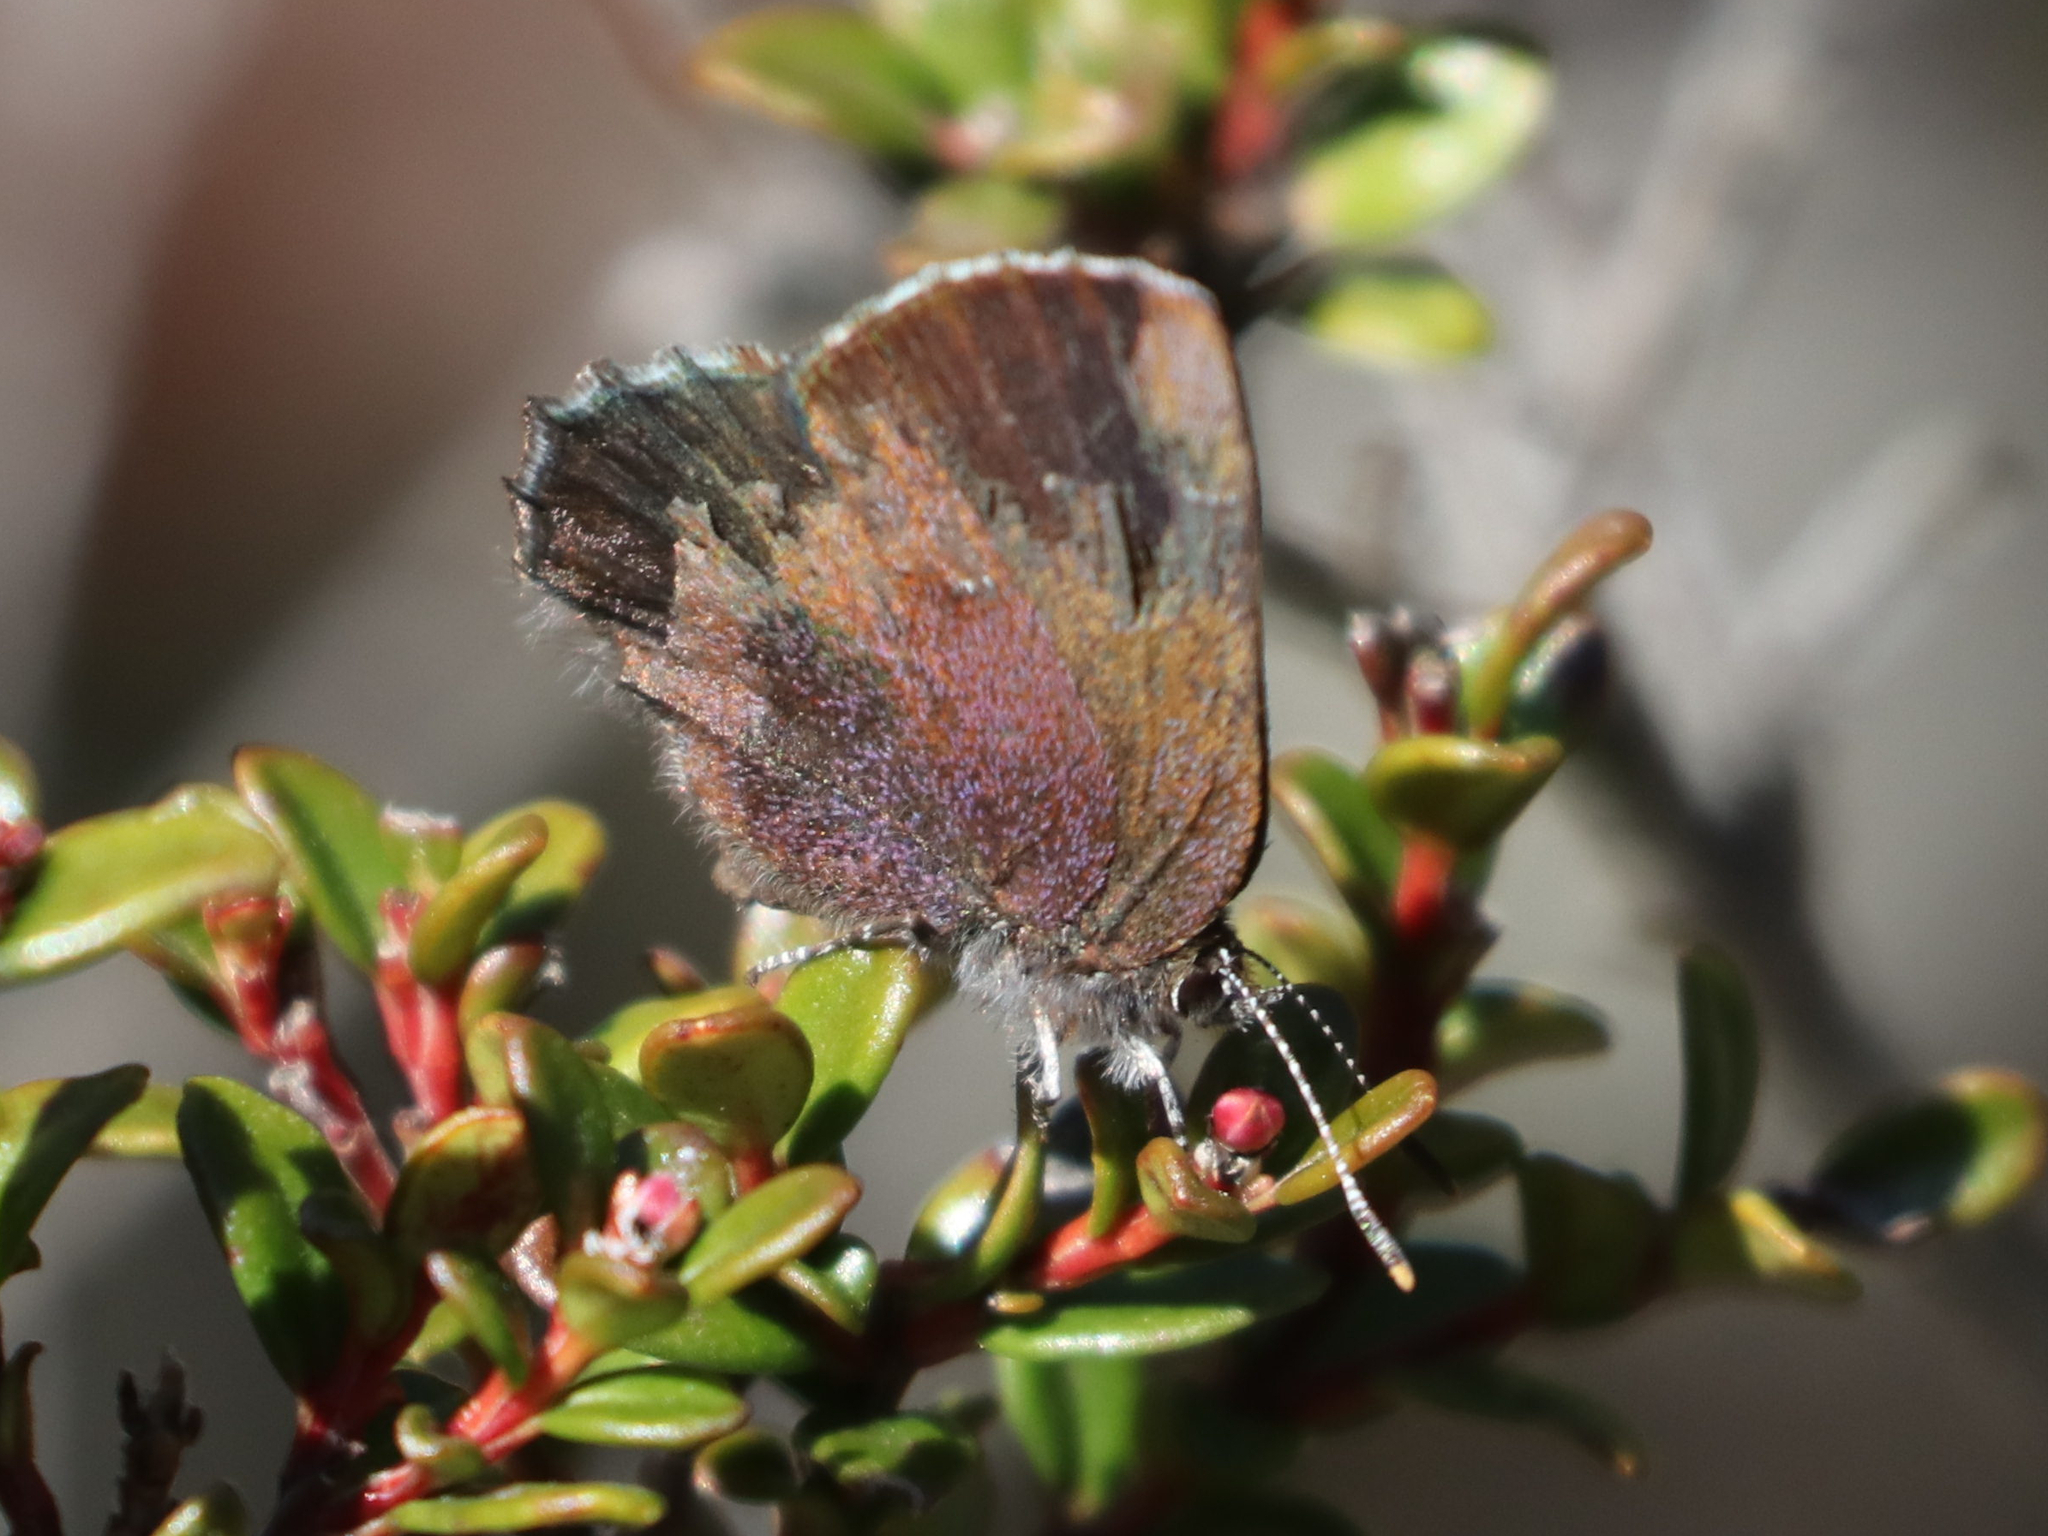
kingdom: Animalia
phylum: Arthropoda
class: Insecta
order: Lepidoptera
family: Lycaenidae
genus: Incisalia
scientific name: Incisalia irioides
